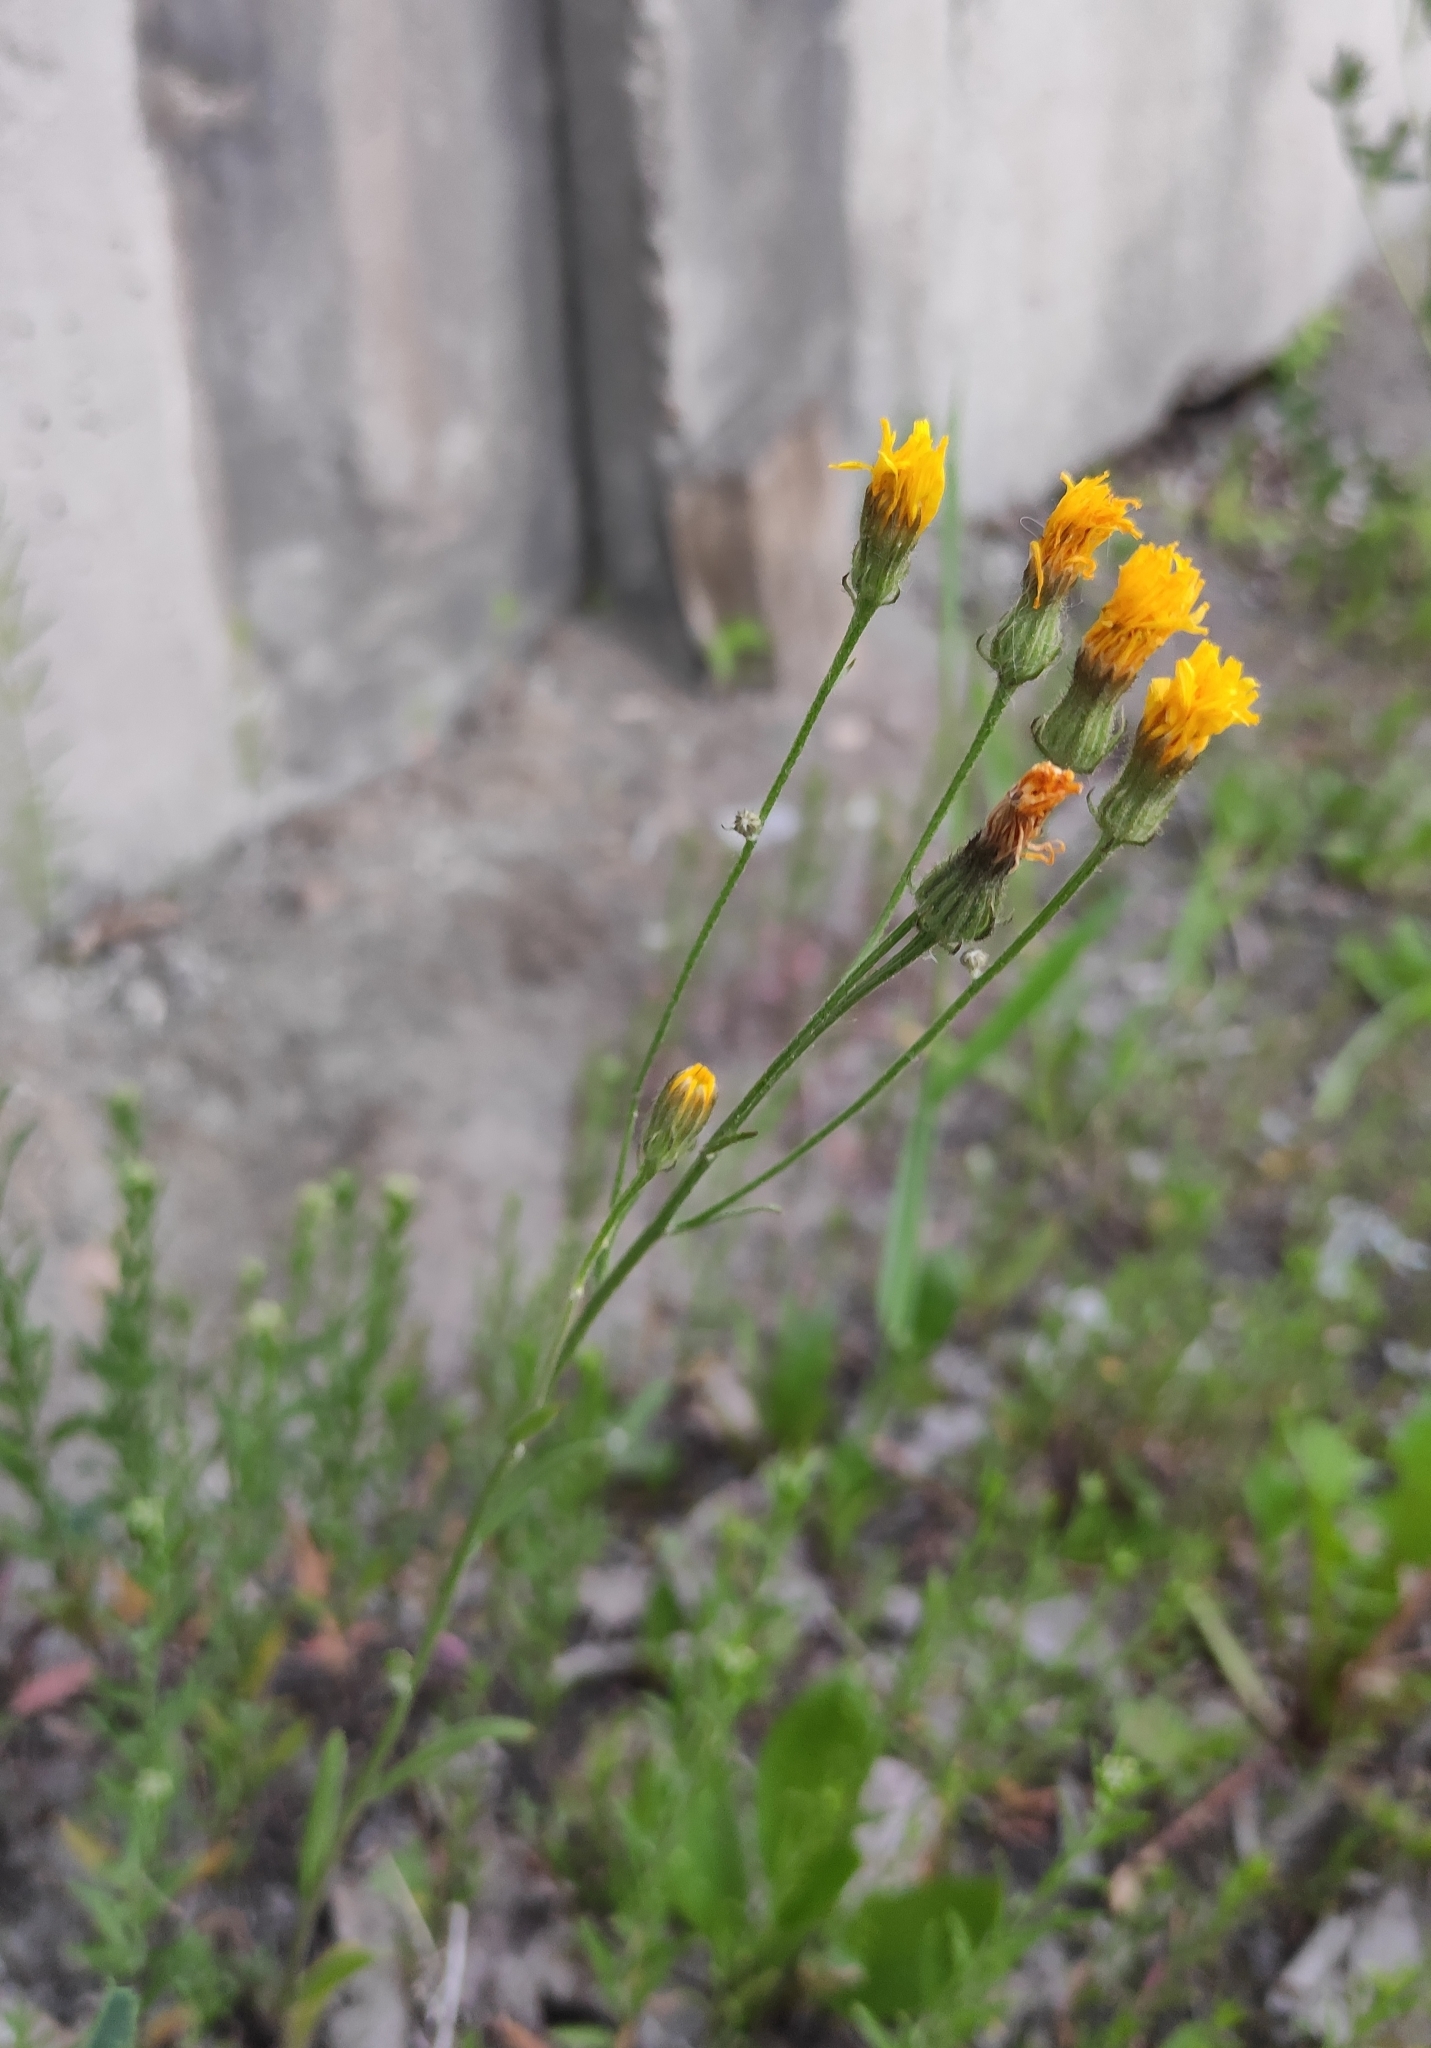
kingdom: Plantae
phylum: Tracheophyta
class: Magnoliopsida
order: Asterales
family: Asteraceae
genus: Crepis
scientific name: Crepis tectorum
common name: Narrow-leaved hawk's-beard
